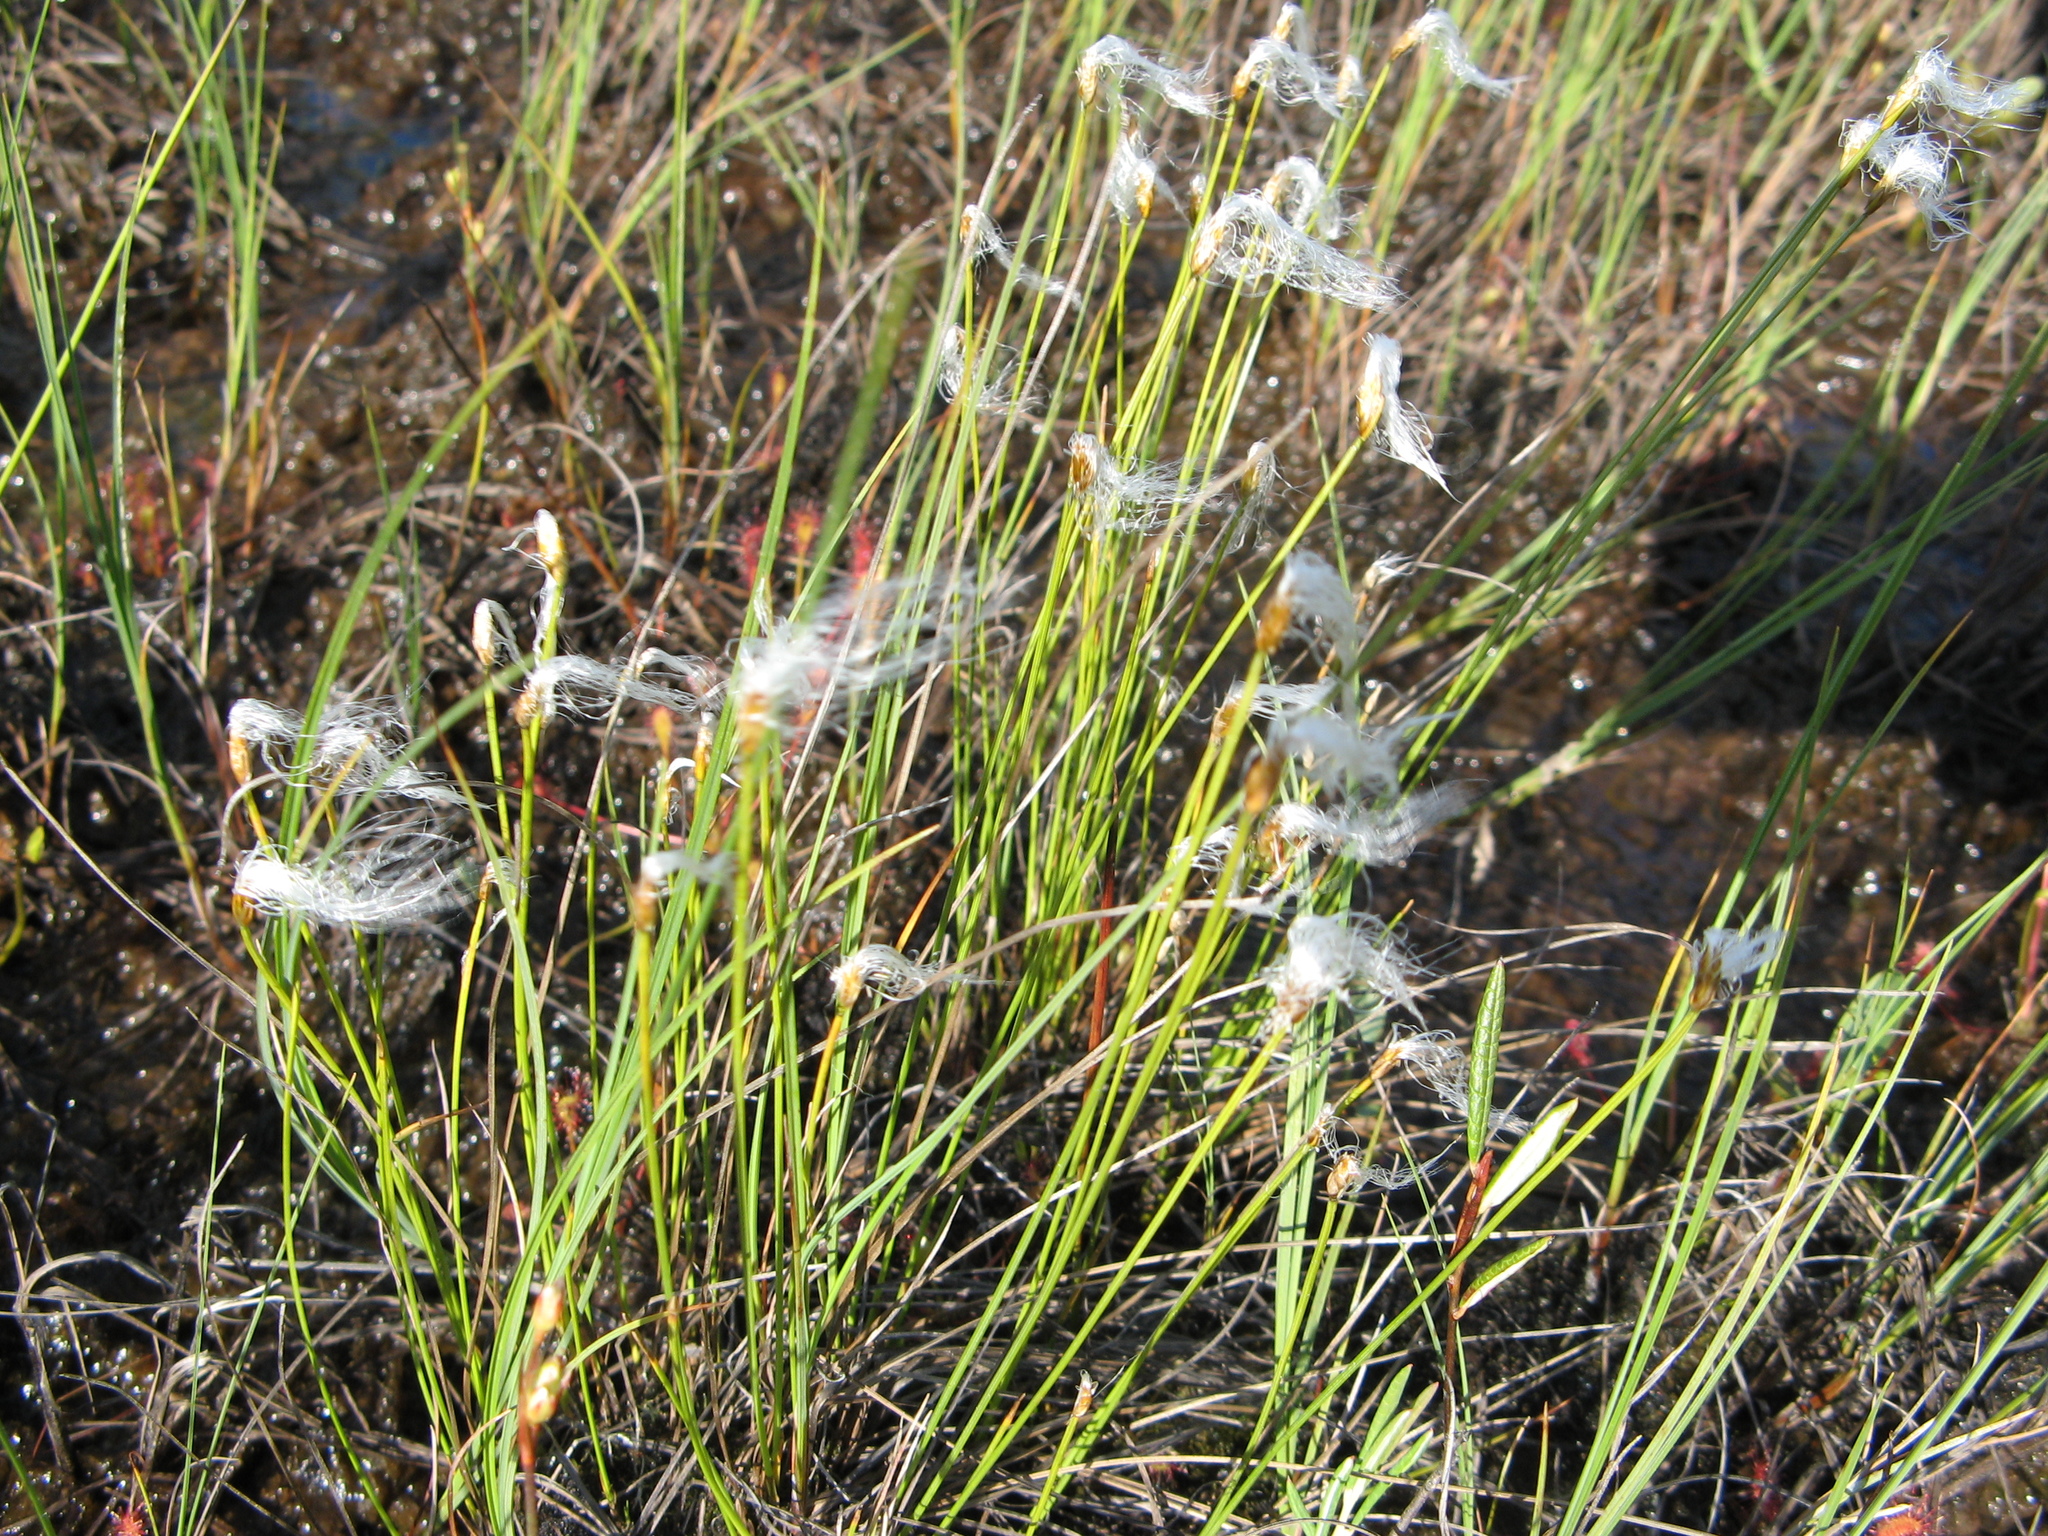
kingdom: Plantae
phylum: Tracheophyta
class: Liliopsida
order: Poales
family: Cyperaceae
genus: Trichophorum
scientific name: Trichophorum alpinum
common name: Alpine bulrush
